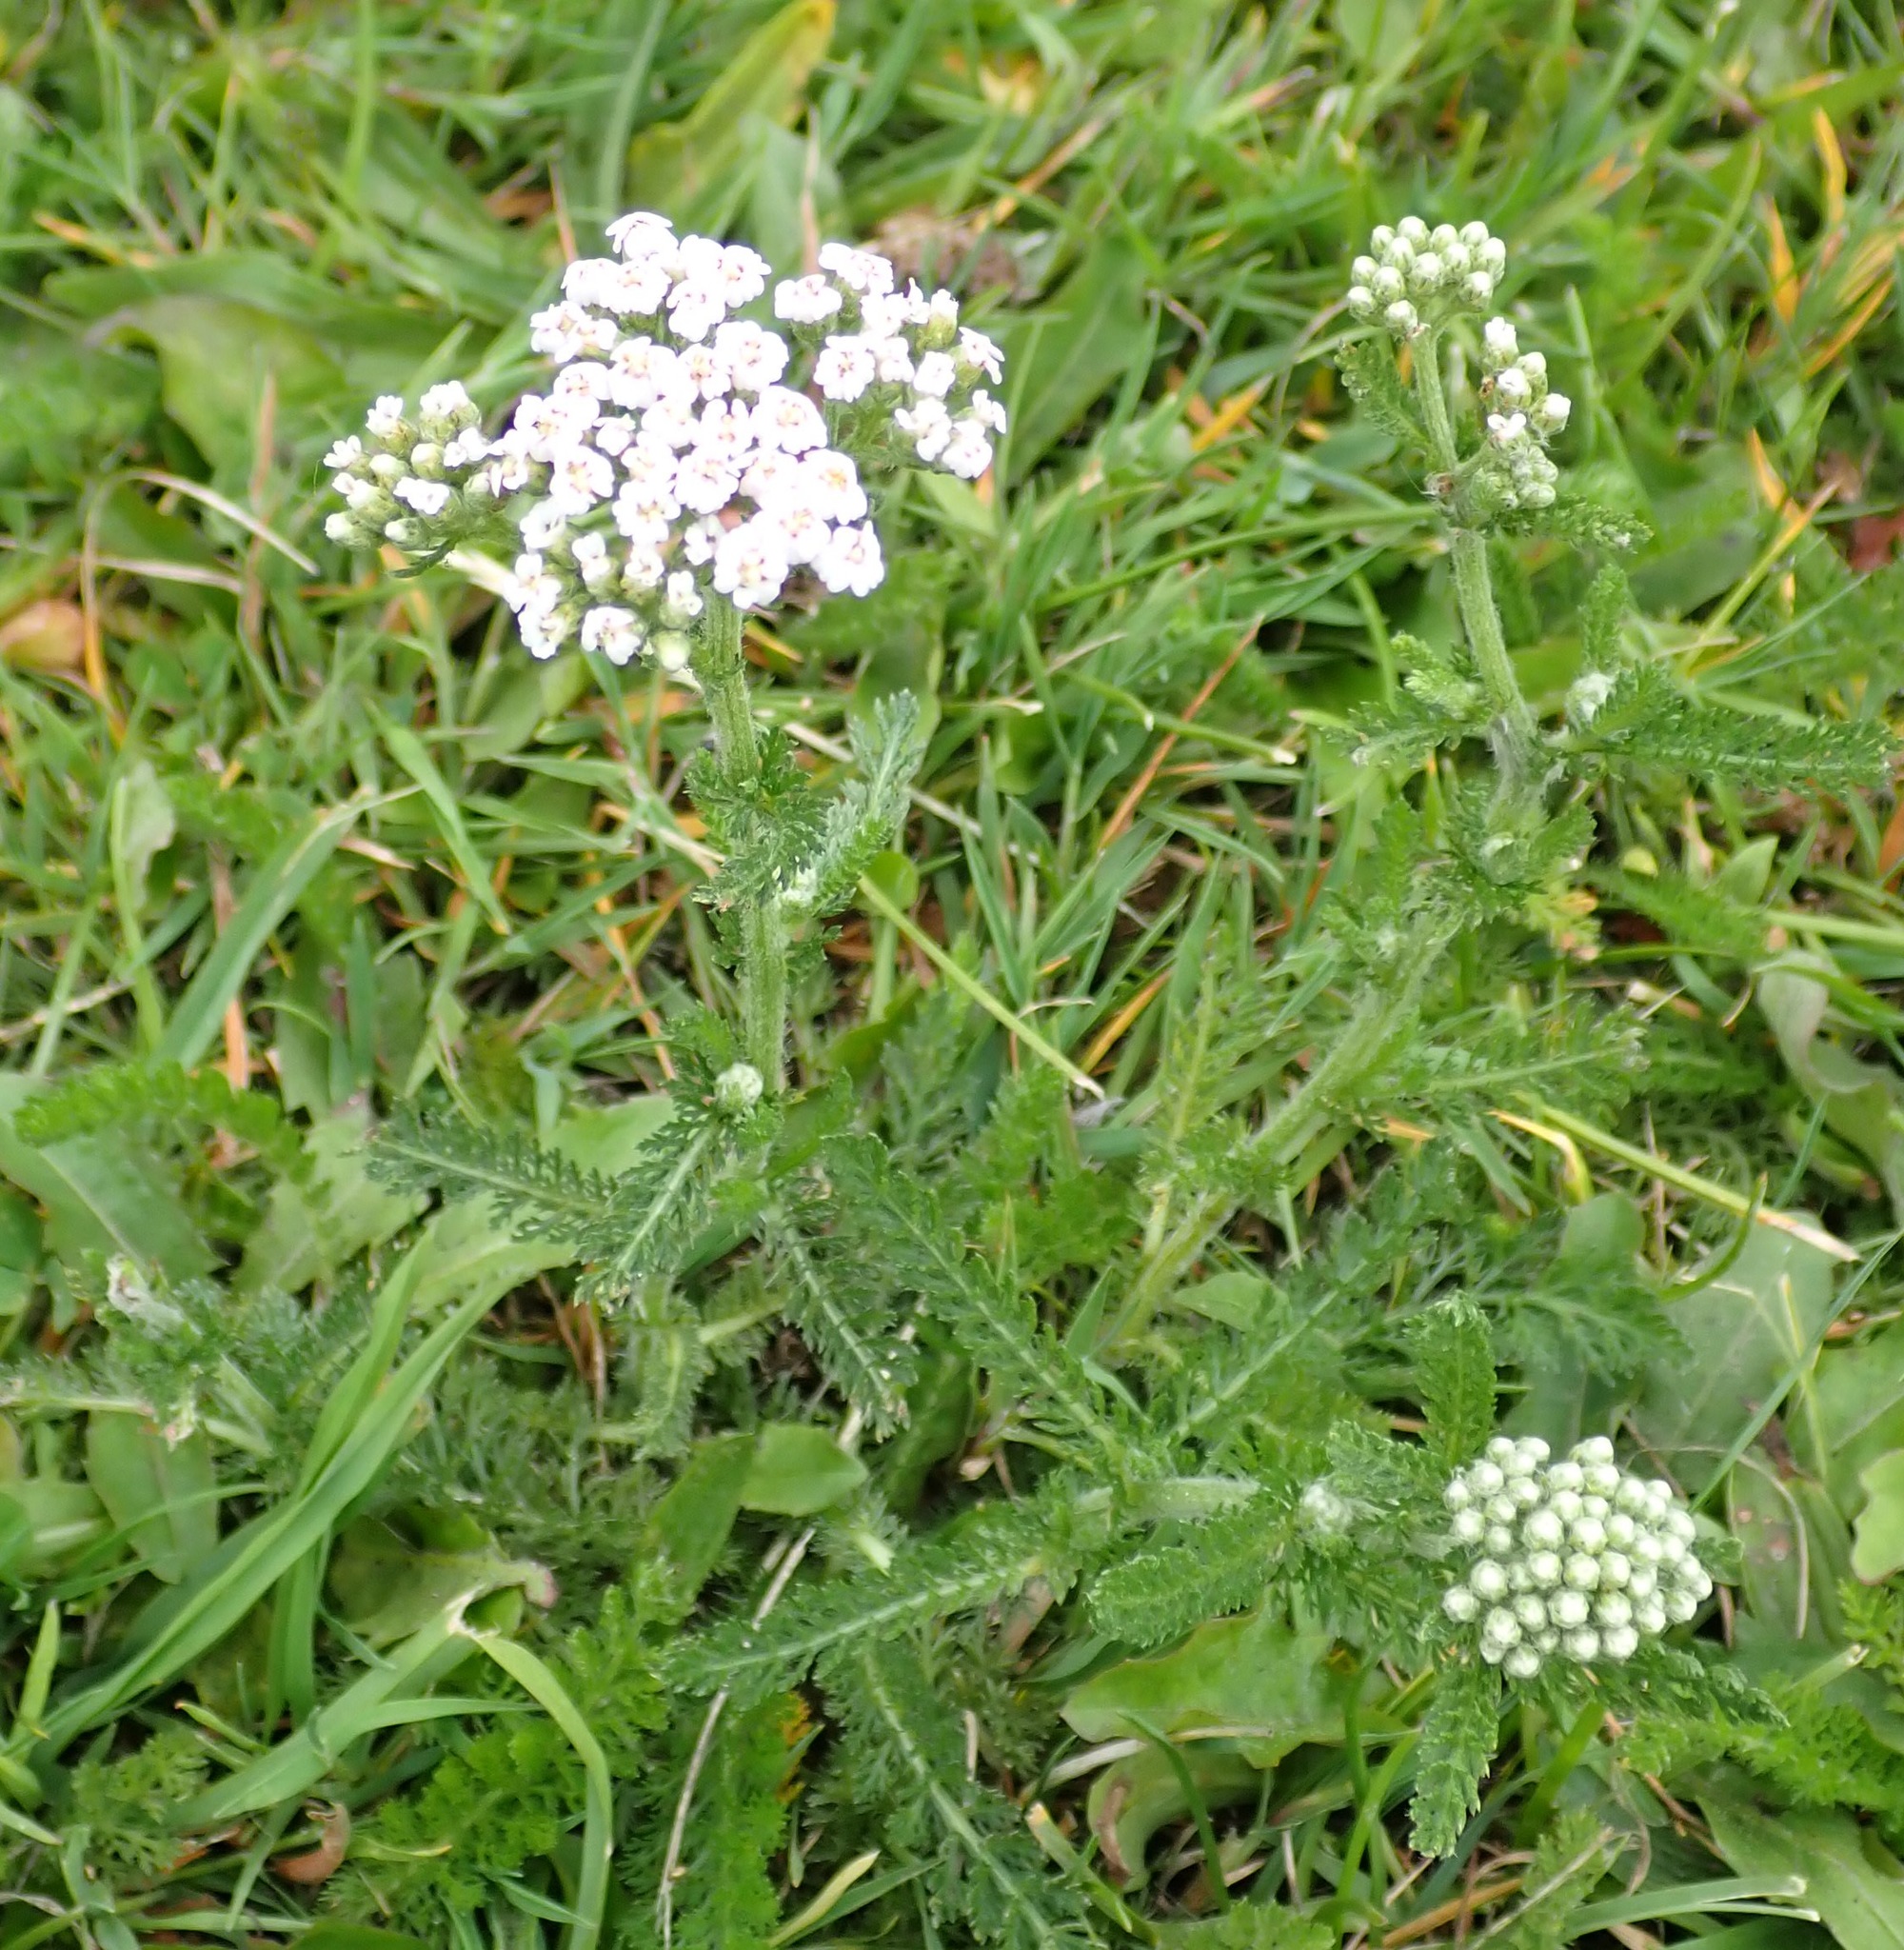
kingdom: Plantae
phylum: Tracheophyta
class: Magnoliopsida
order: Asterales
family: Asteraceae
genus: Achillea
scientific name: Achillea millefolium
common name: Yarrow
